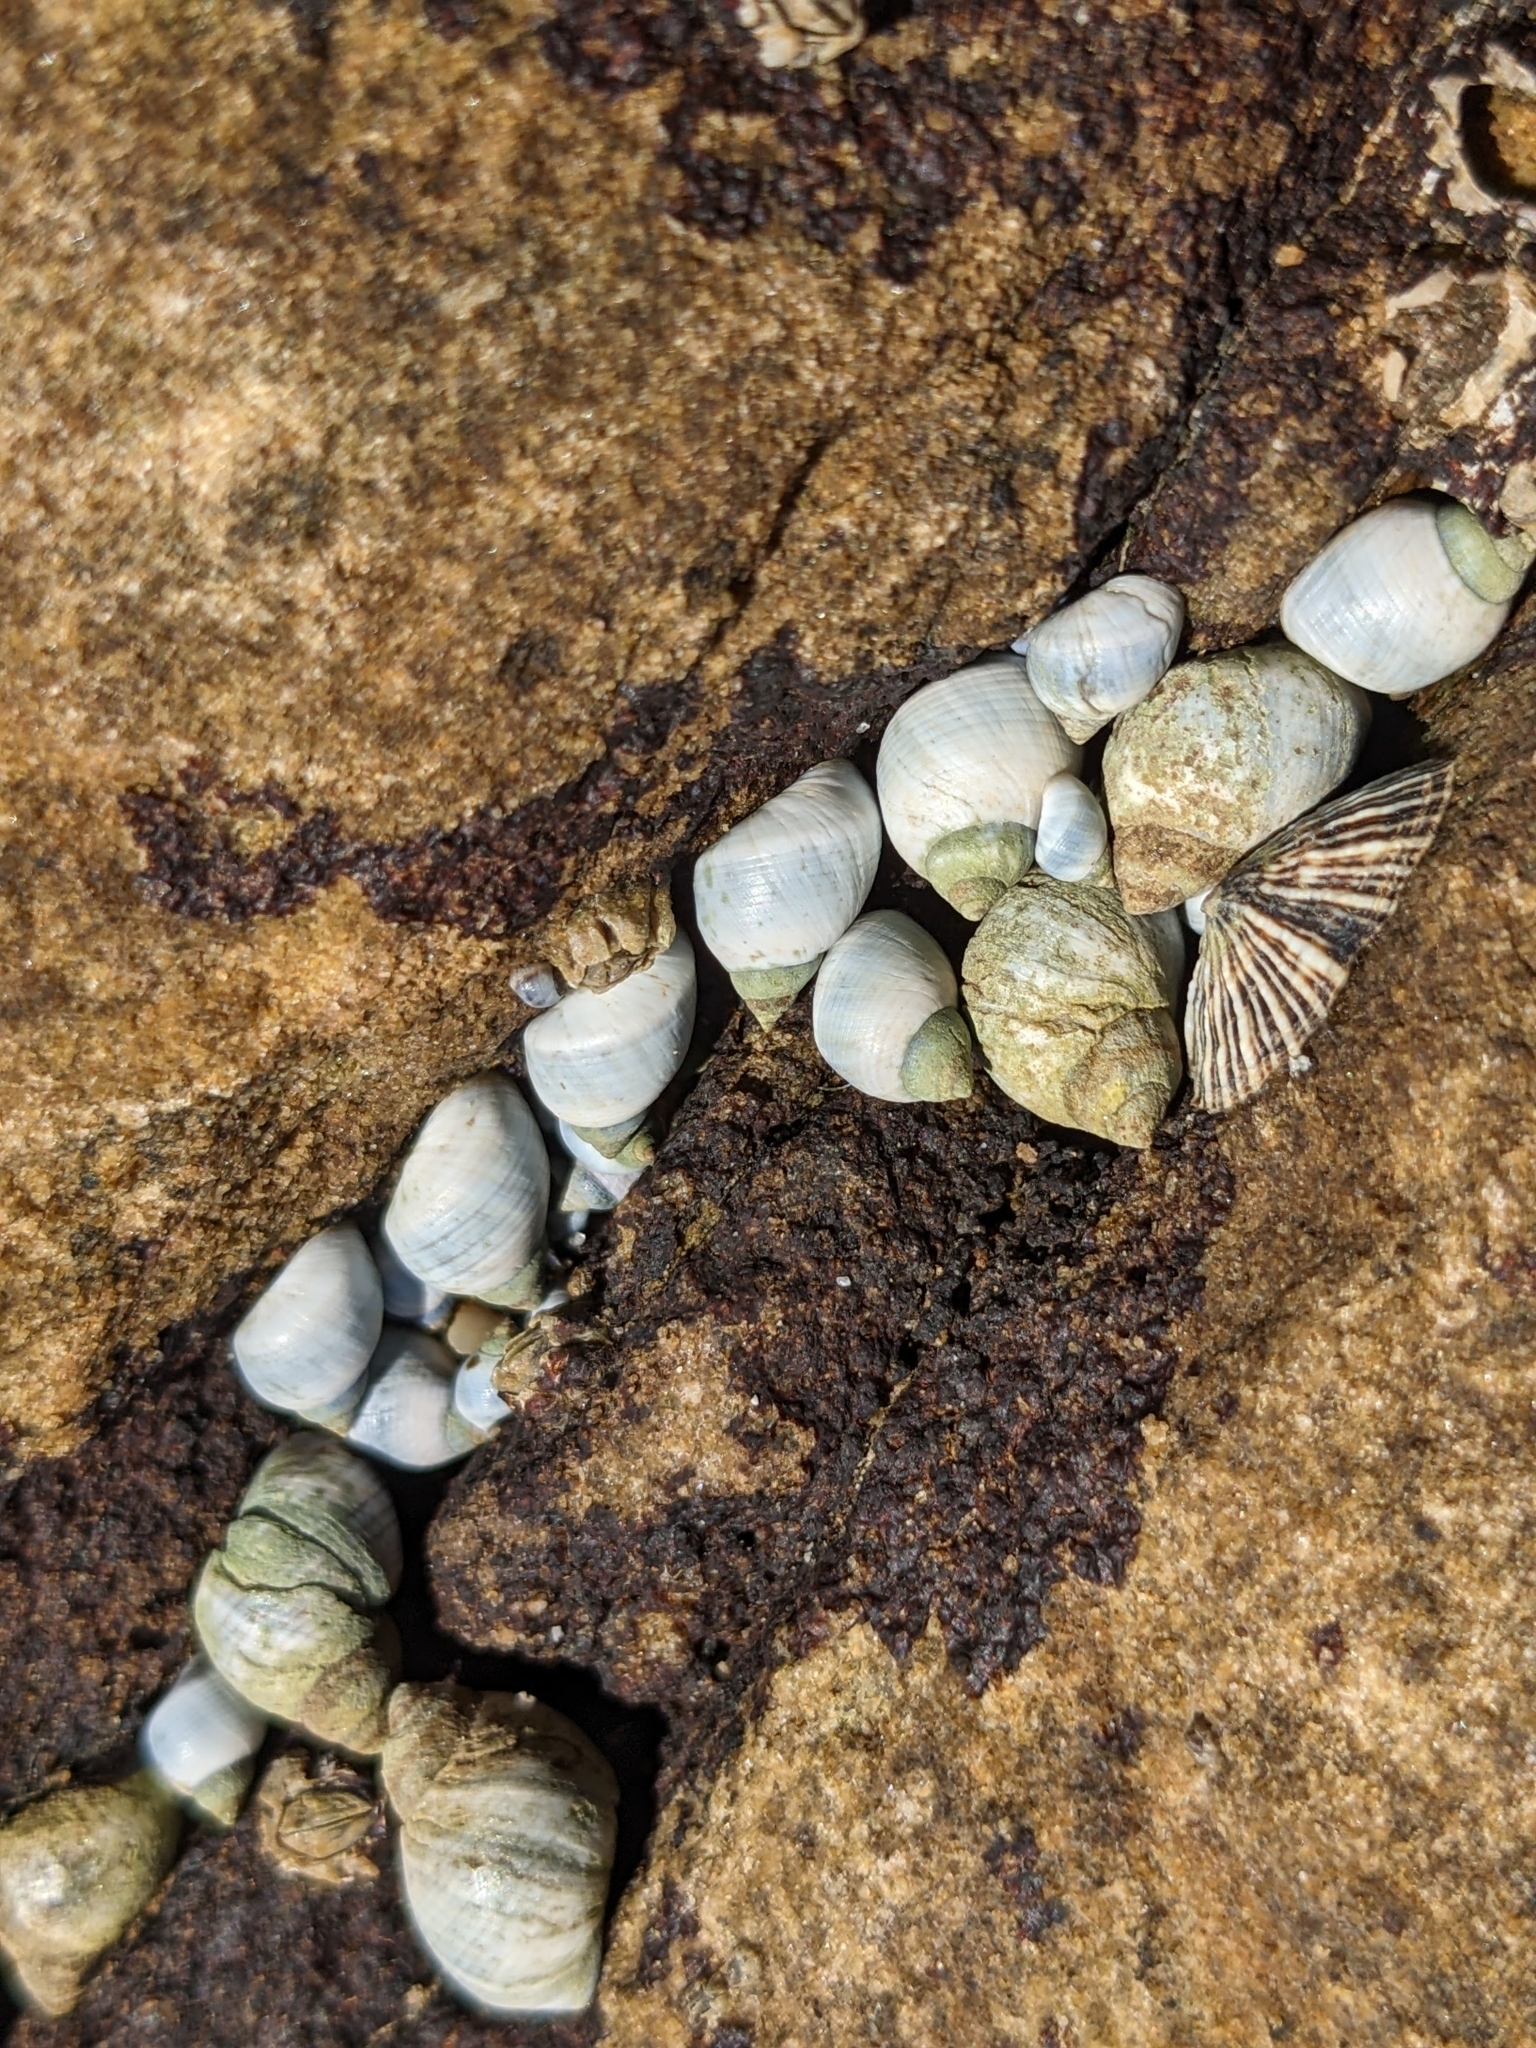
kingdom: Animalia
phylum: Mollusca
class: Gastropoda
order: Littorinimorpha
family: Littorinidae
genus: Austrolittorina
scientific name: Austrolittorina unifasciata
